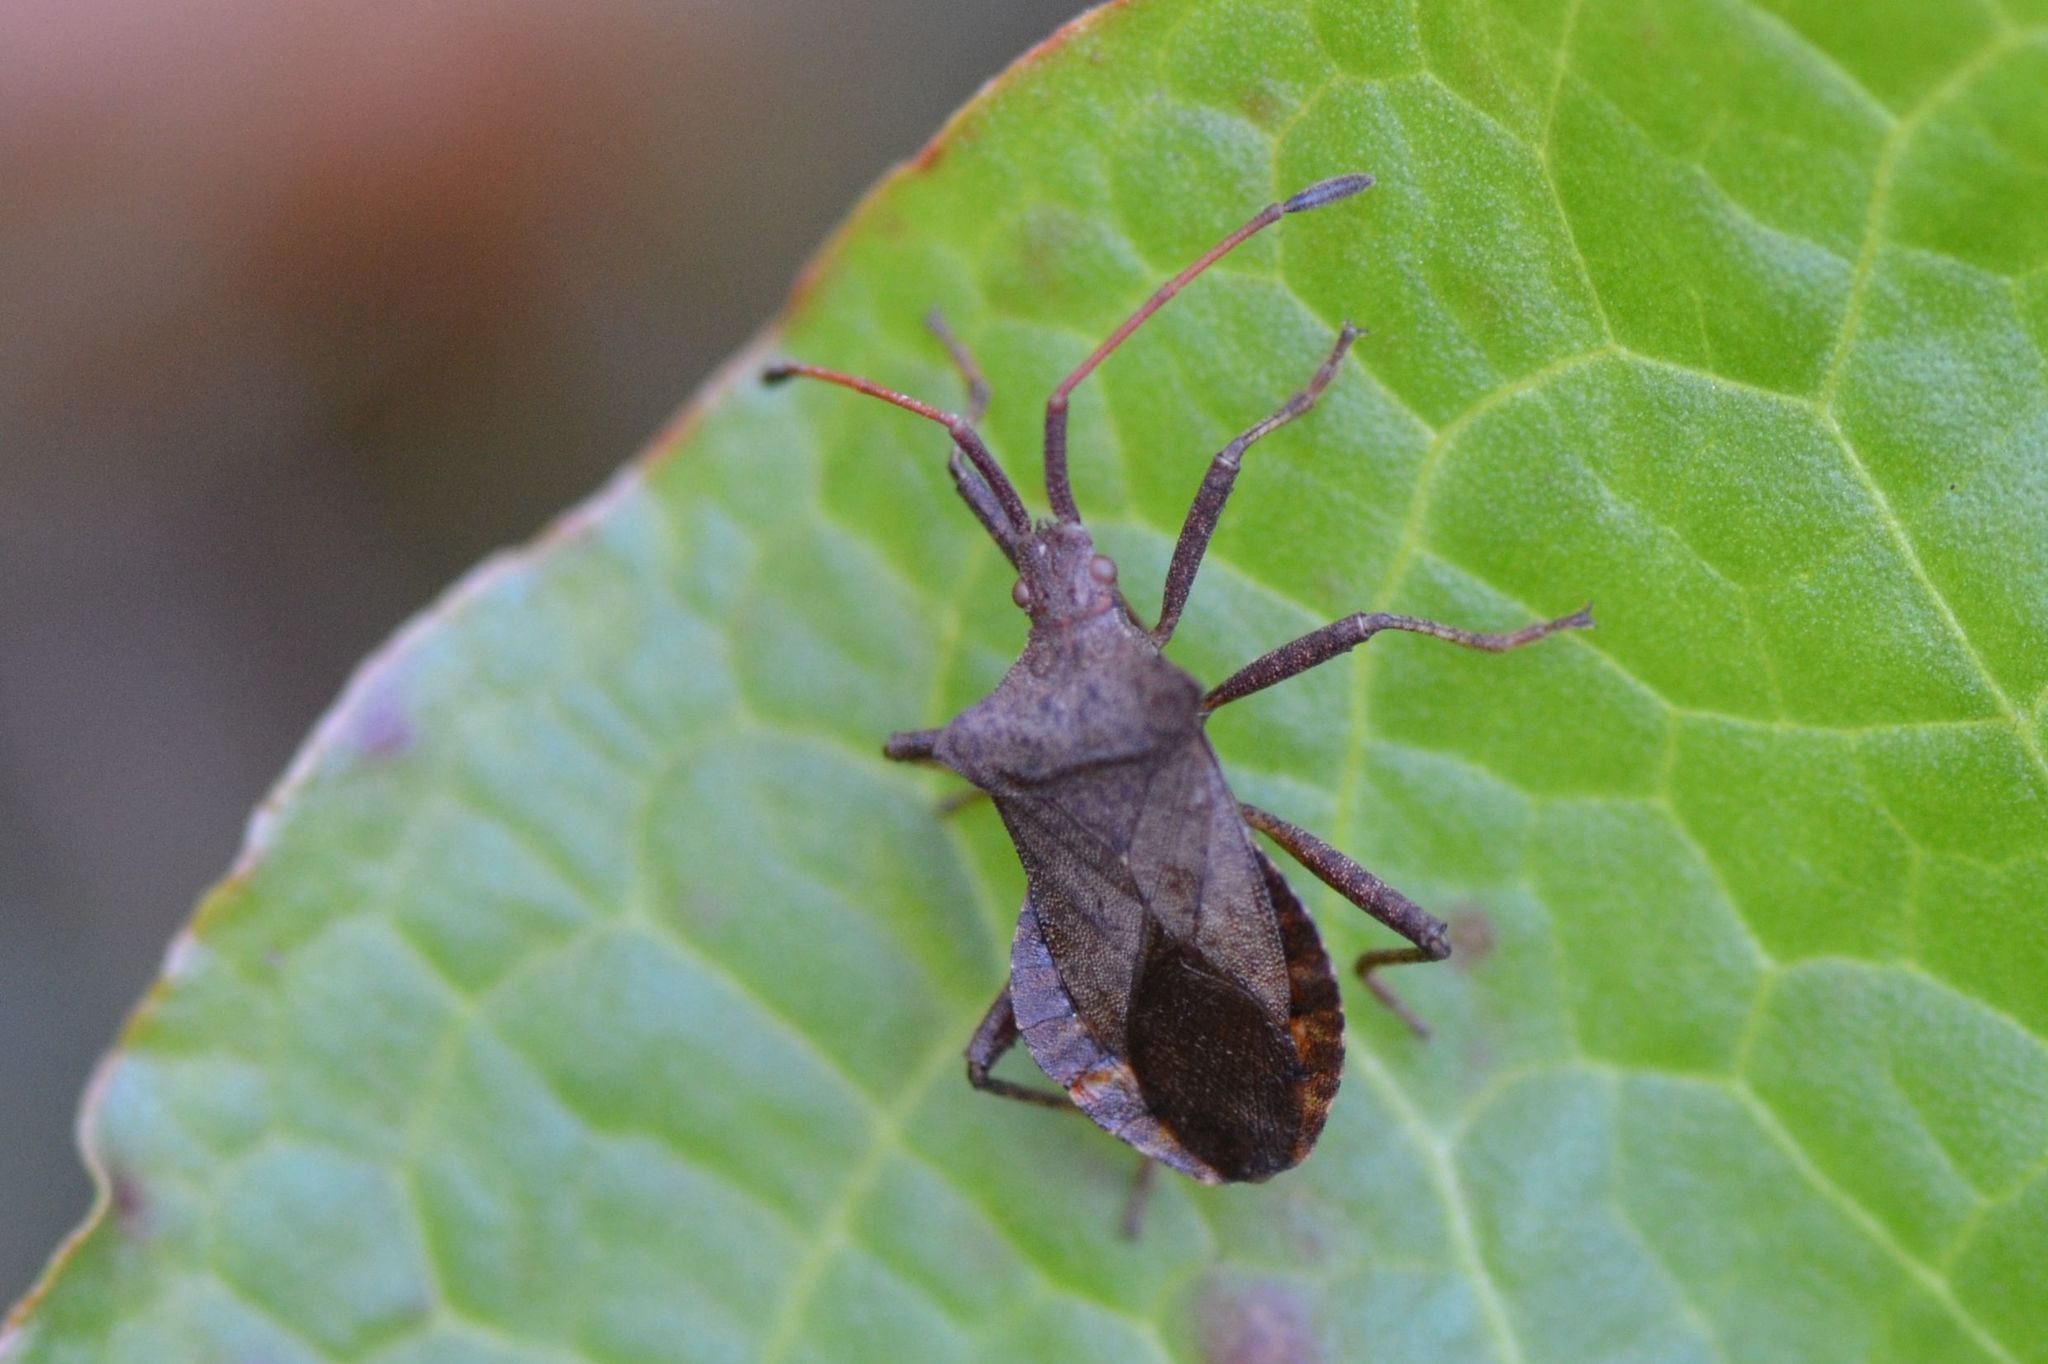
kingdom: Animalia
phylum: Arthropoda
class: Insecta
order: Hemiptera
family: Coreidae
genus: Coreus
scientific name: Coreus marginatus
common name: Dock bug
